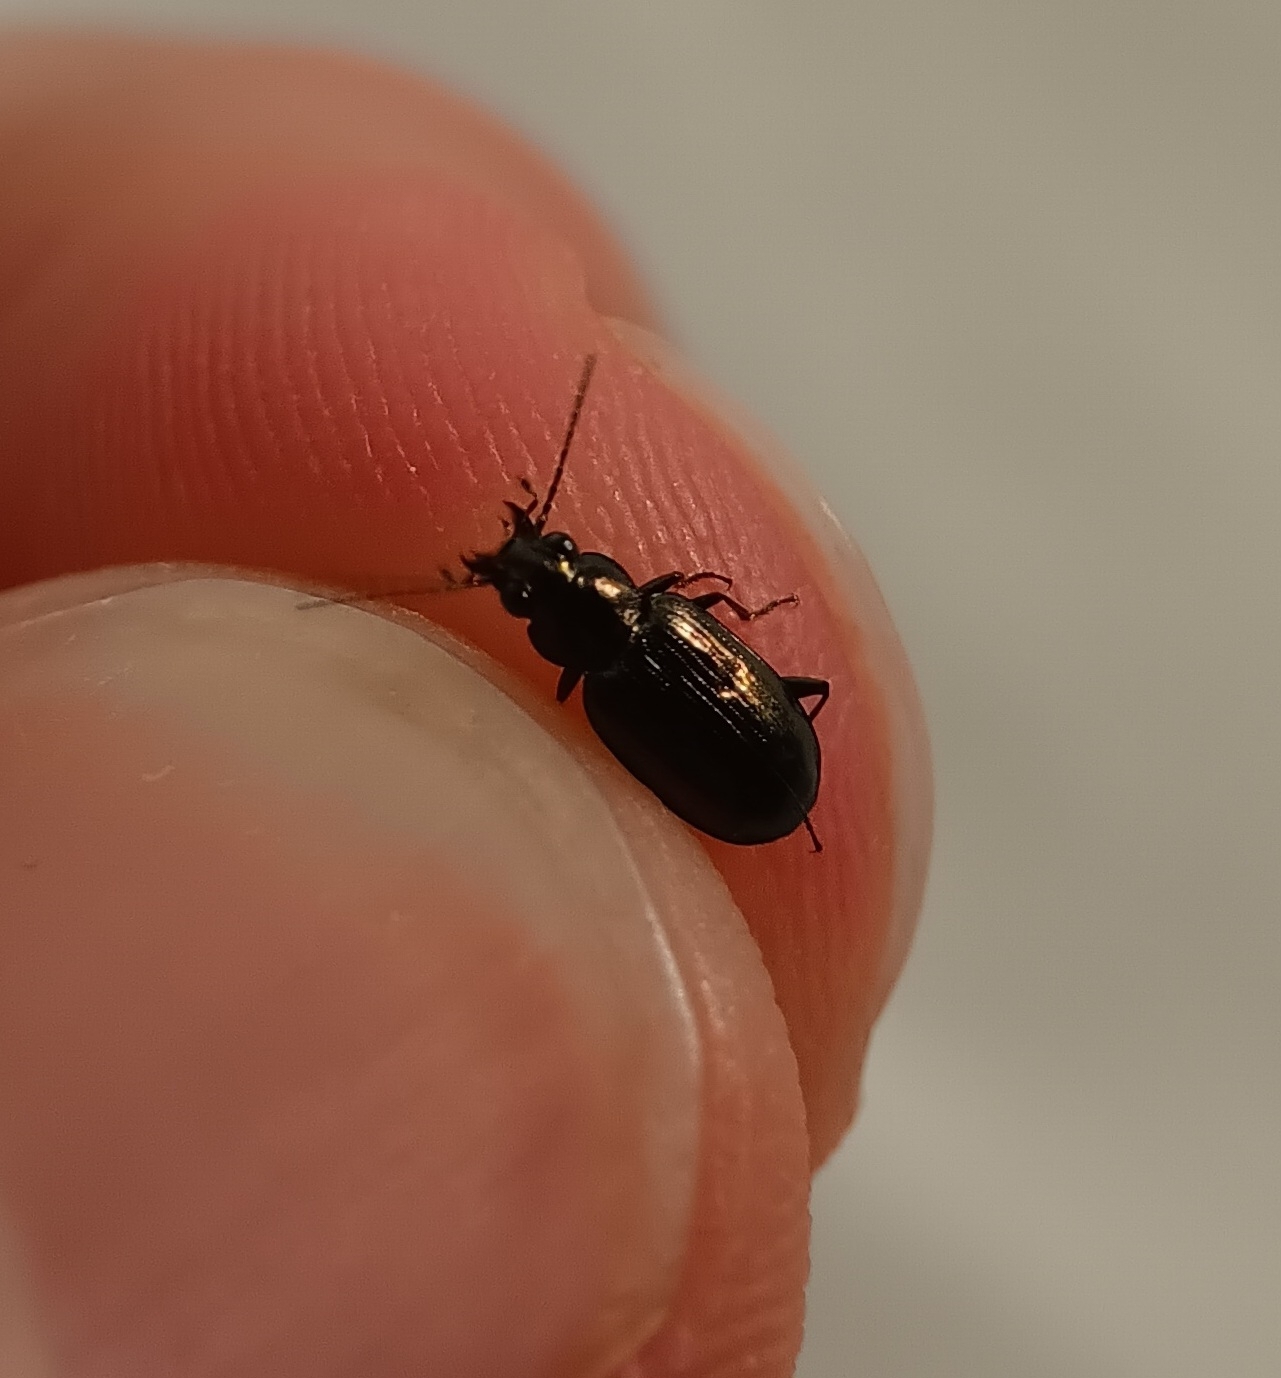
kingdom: Animalia
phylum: Arthropoda
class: Insecta
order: Coleoptera
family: Carabidae
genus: Bembidion
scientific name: Bembidion americanum
